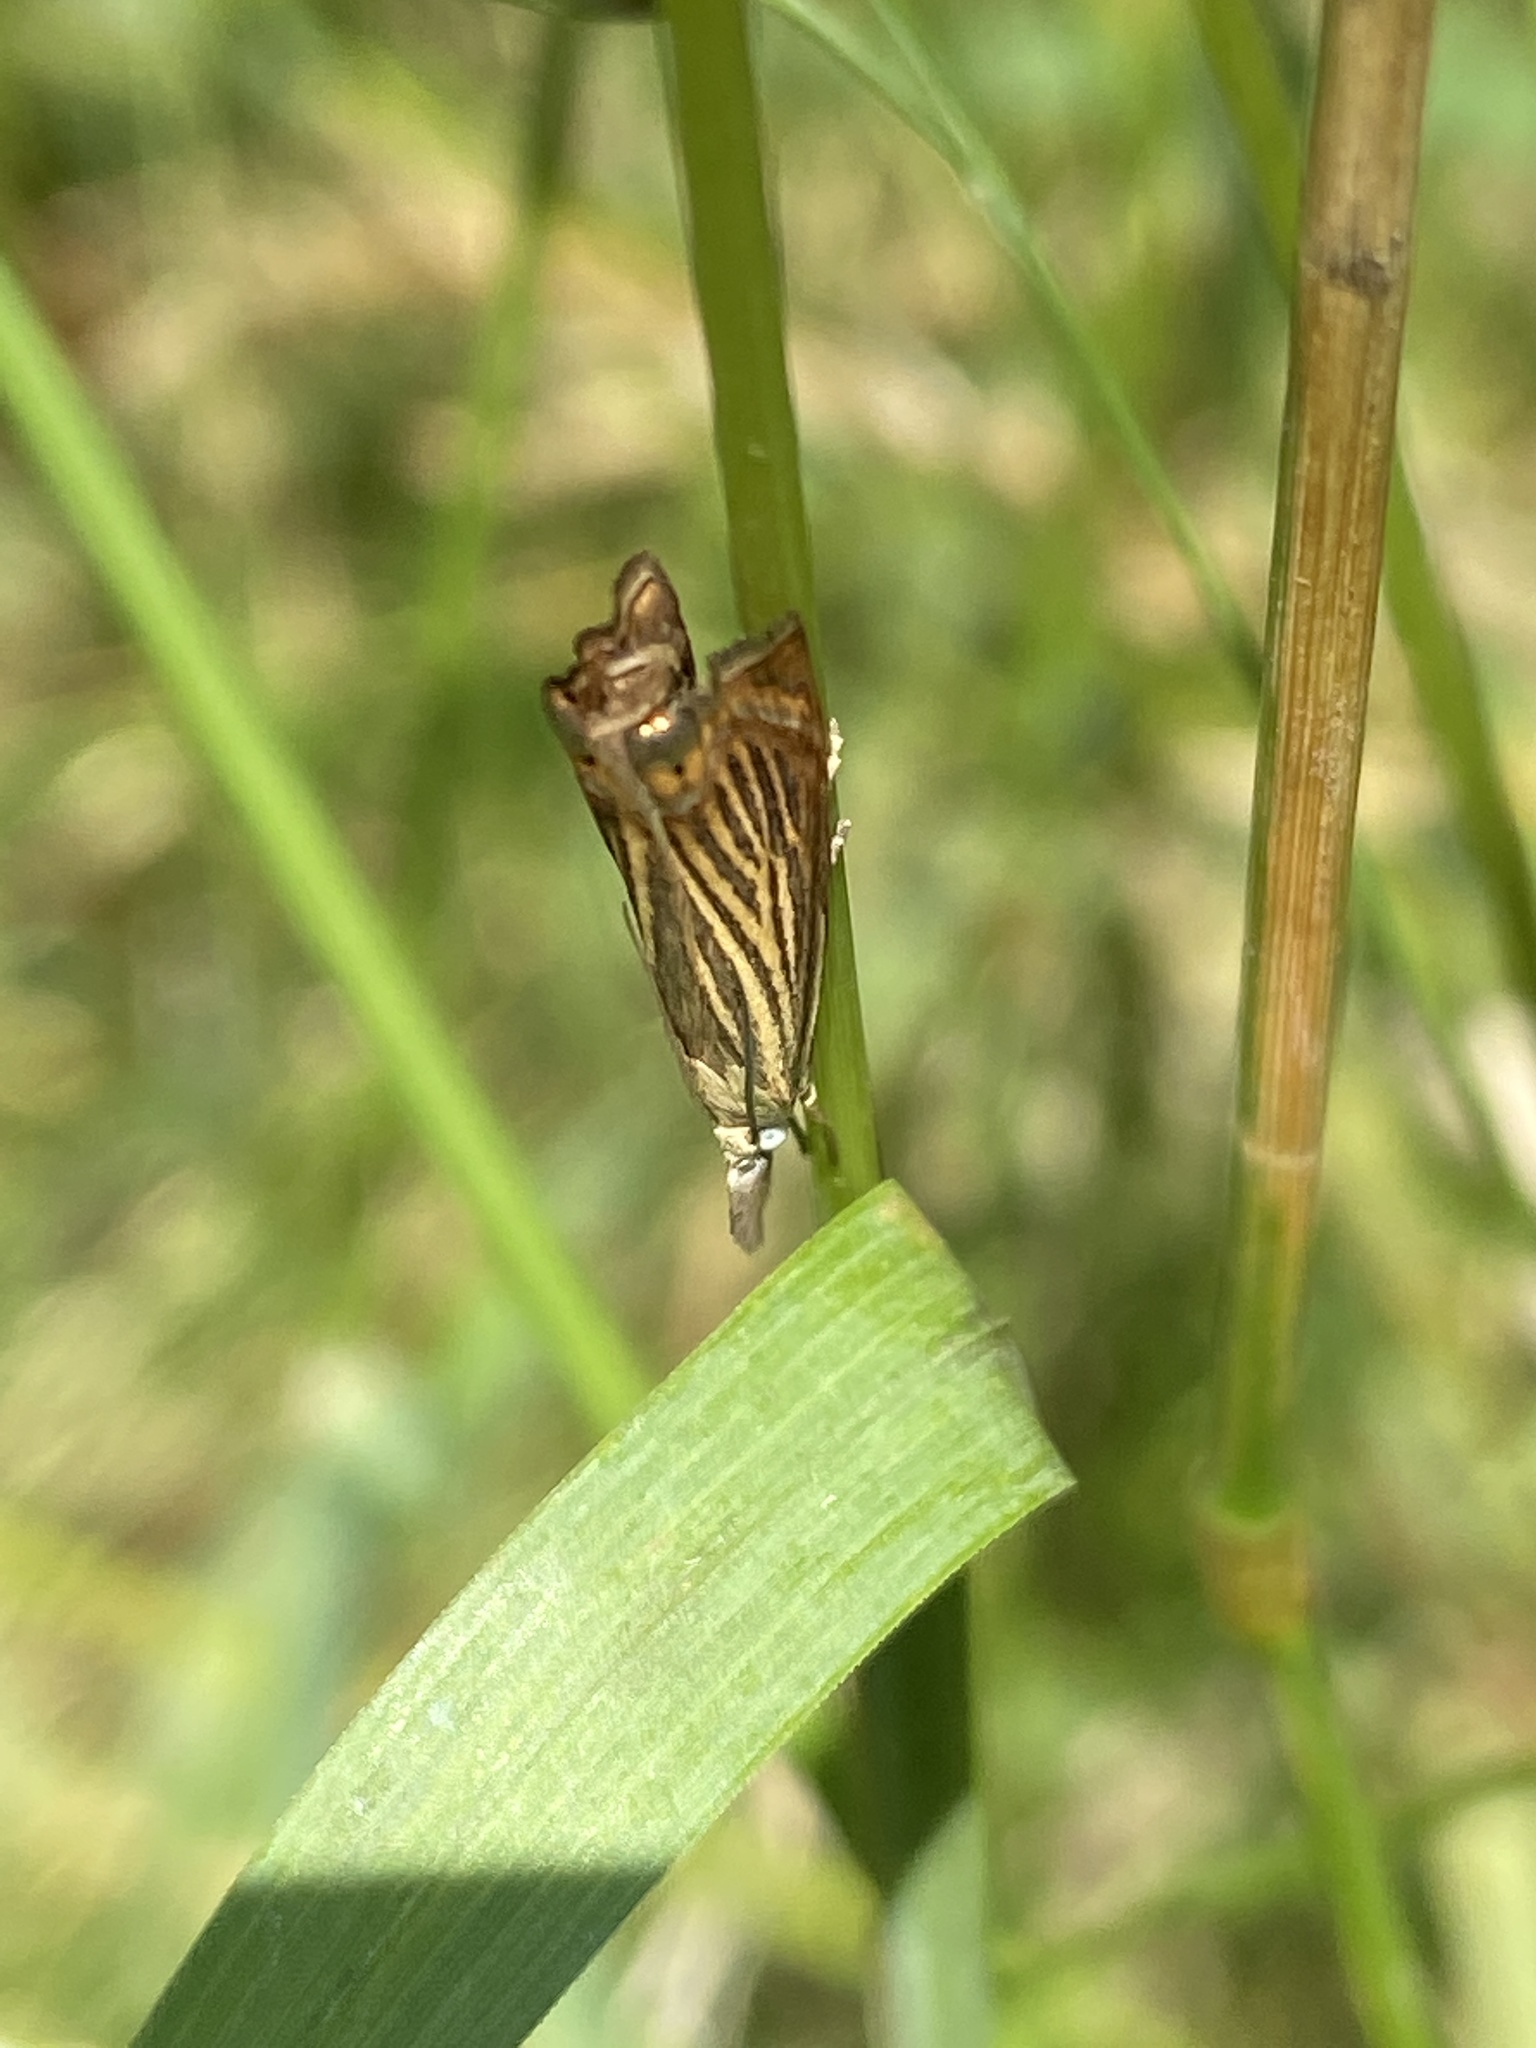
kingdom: Animalia
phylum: Arthropoda
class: Insecta
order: Lepidoptera
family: Crambidae
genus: Chrysoteuchia
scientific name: Chrysoteuchia culmella
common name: Garden grass-veneer
